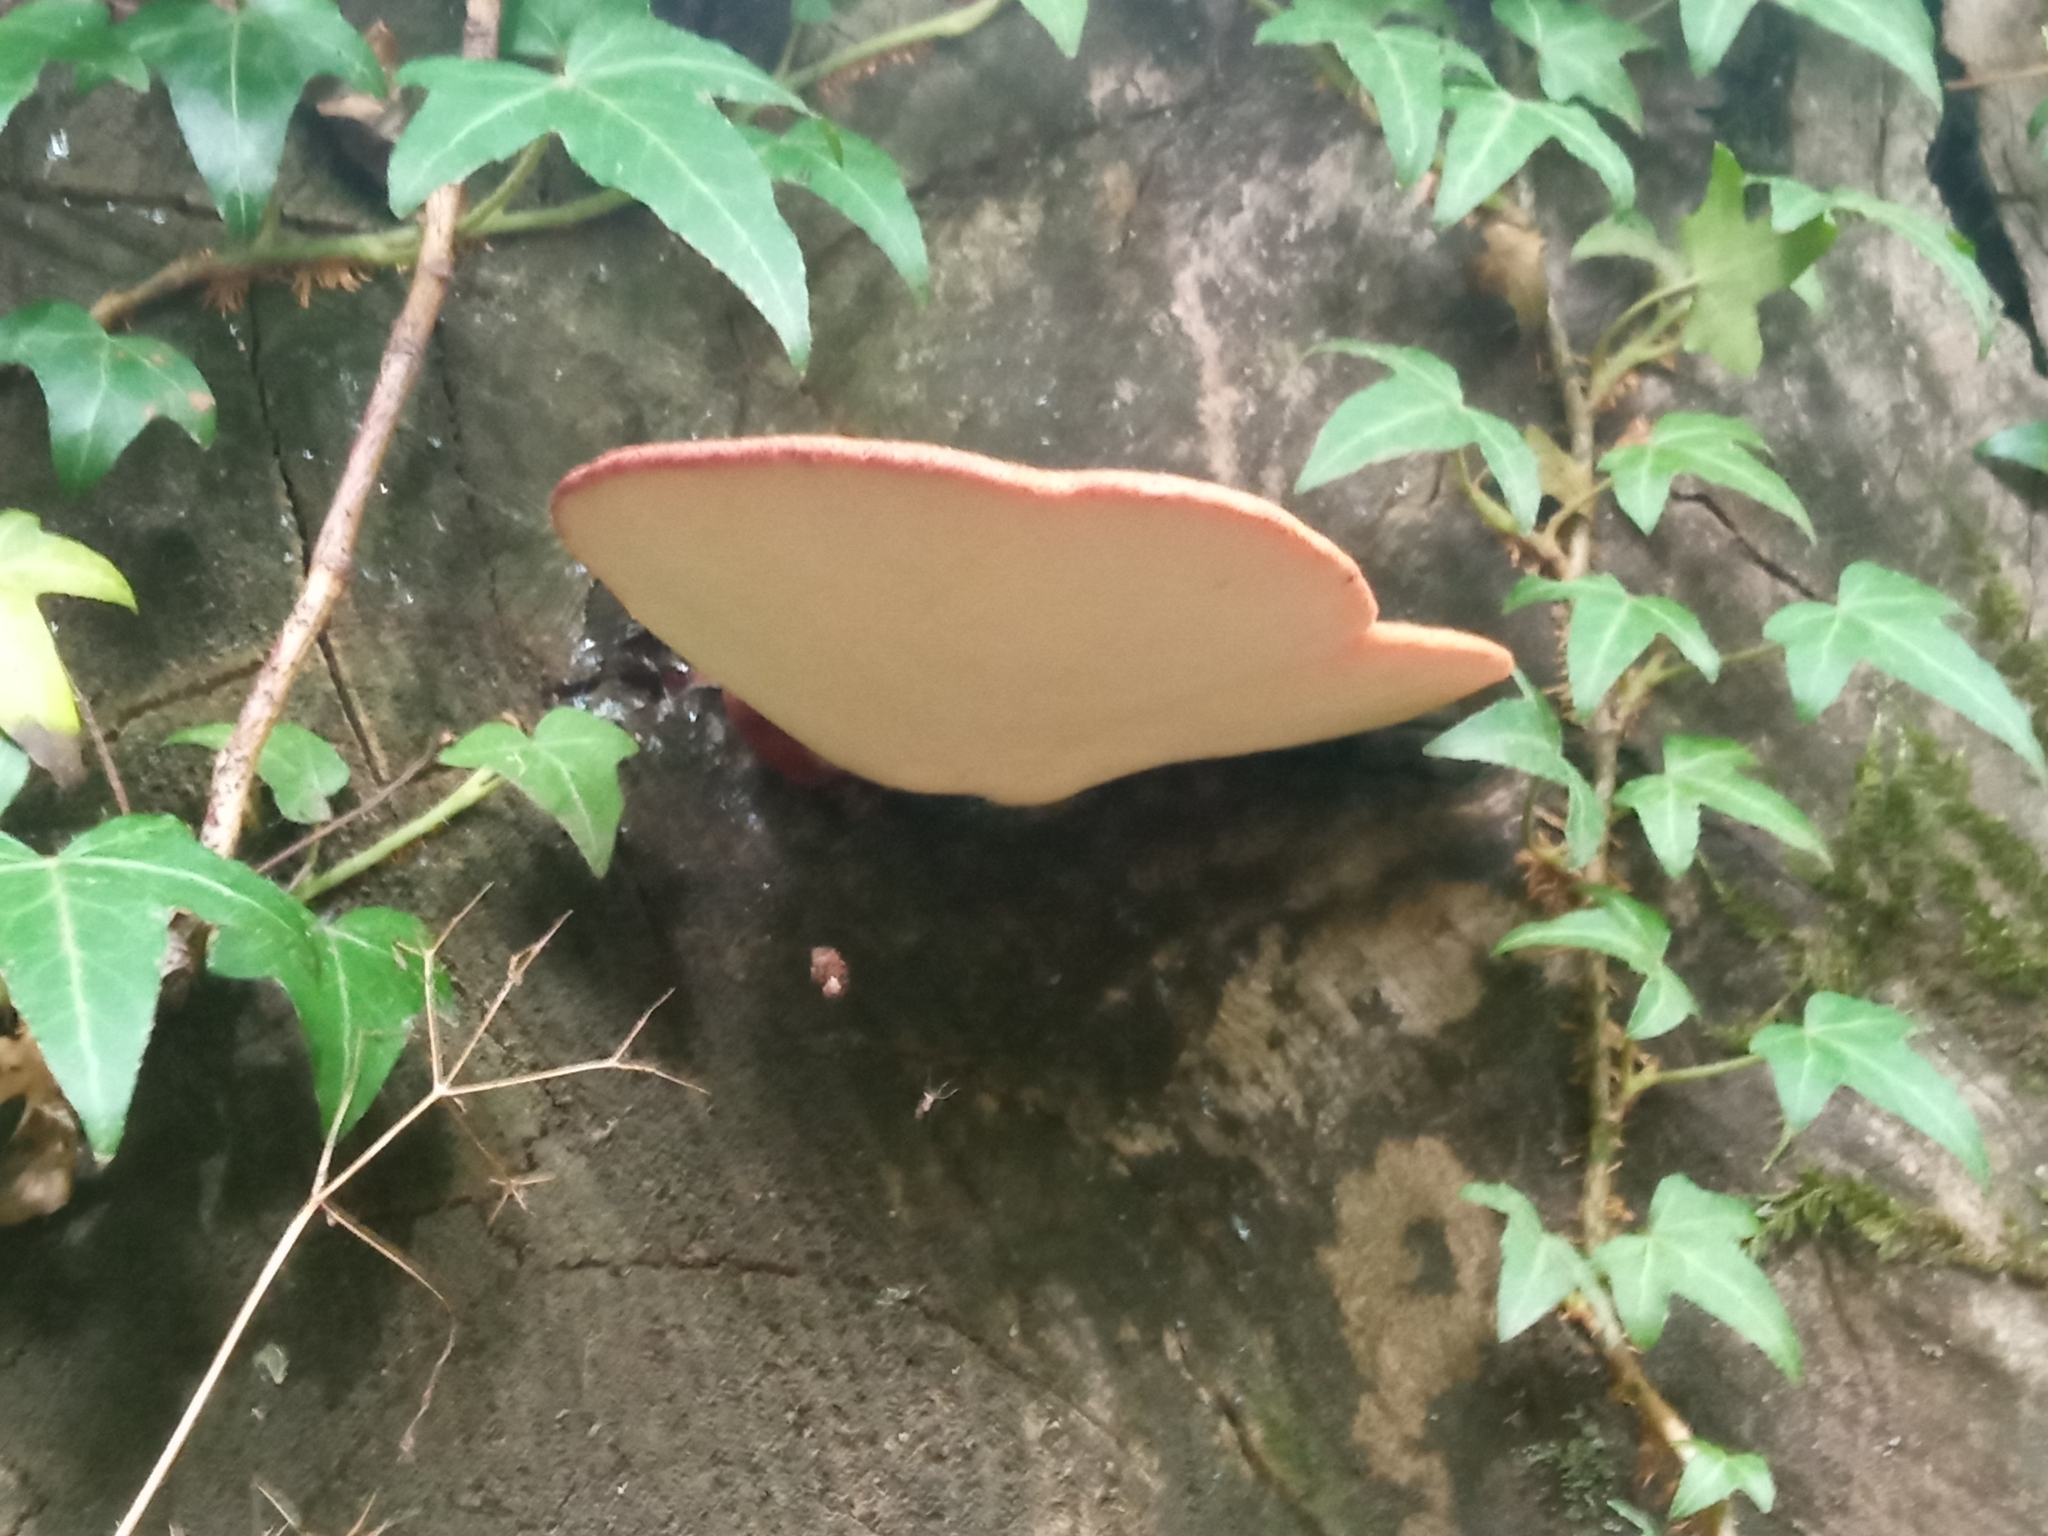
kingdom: Fungi
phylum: Basidiomycota
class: Agaricomycetes
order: Agaricales
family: Fistulinaceae
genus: Fistulina
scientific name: Fistulina hepatica
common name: Beef-steak fungus
